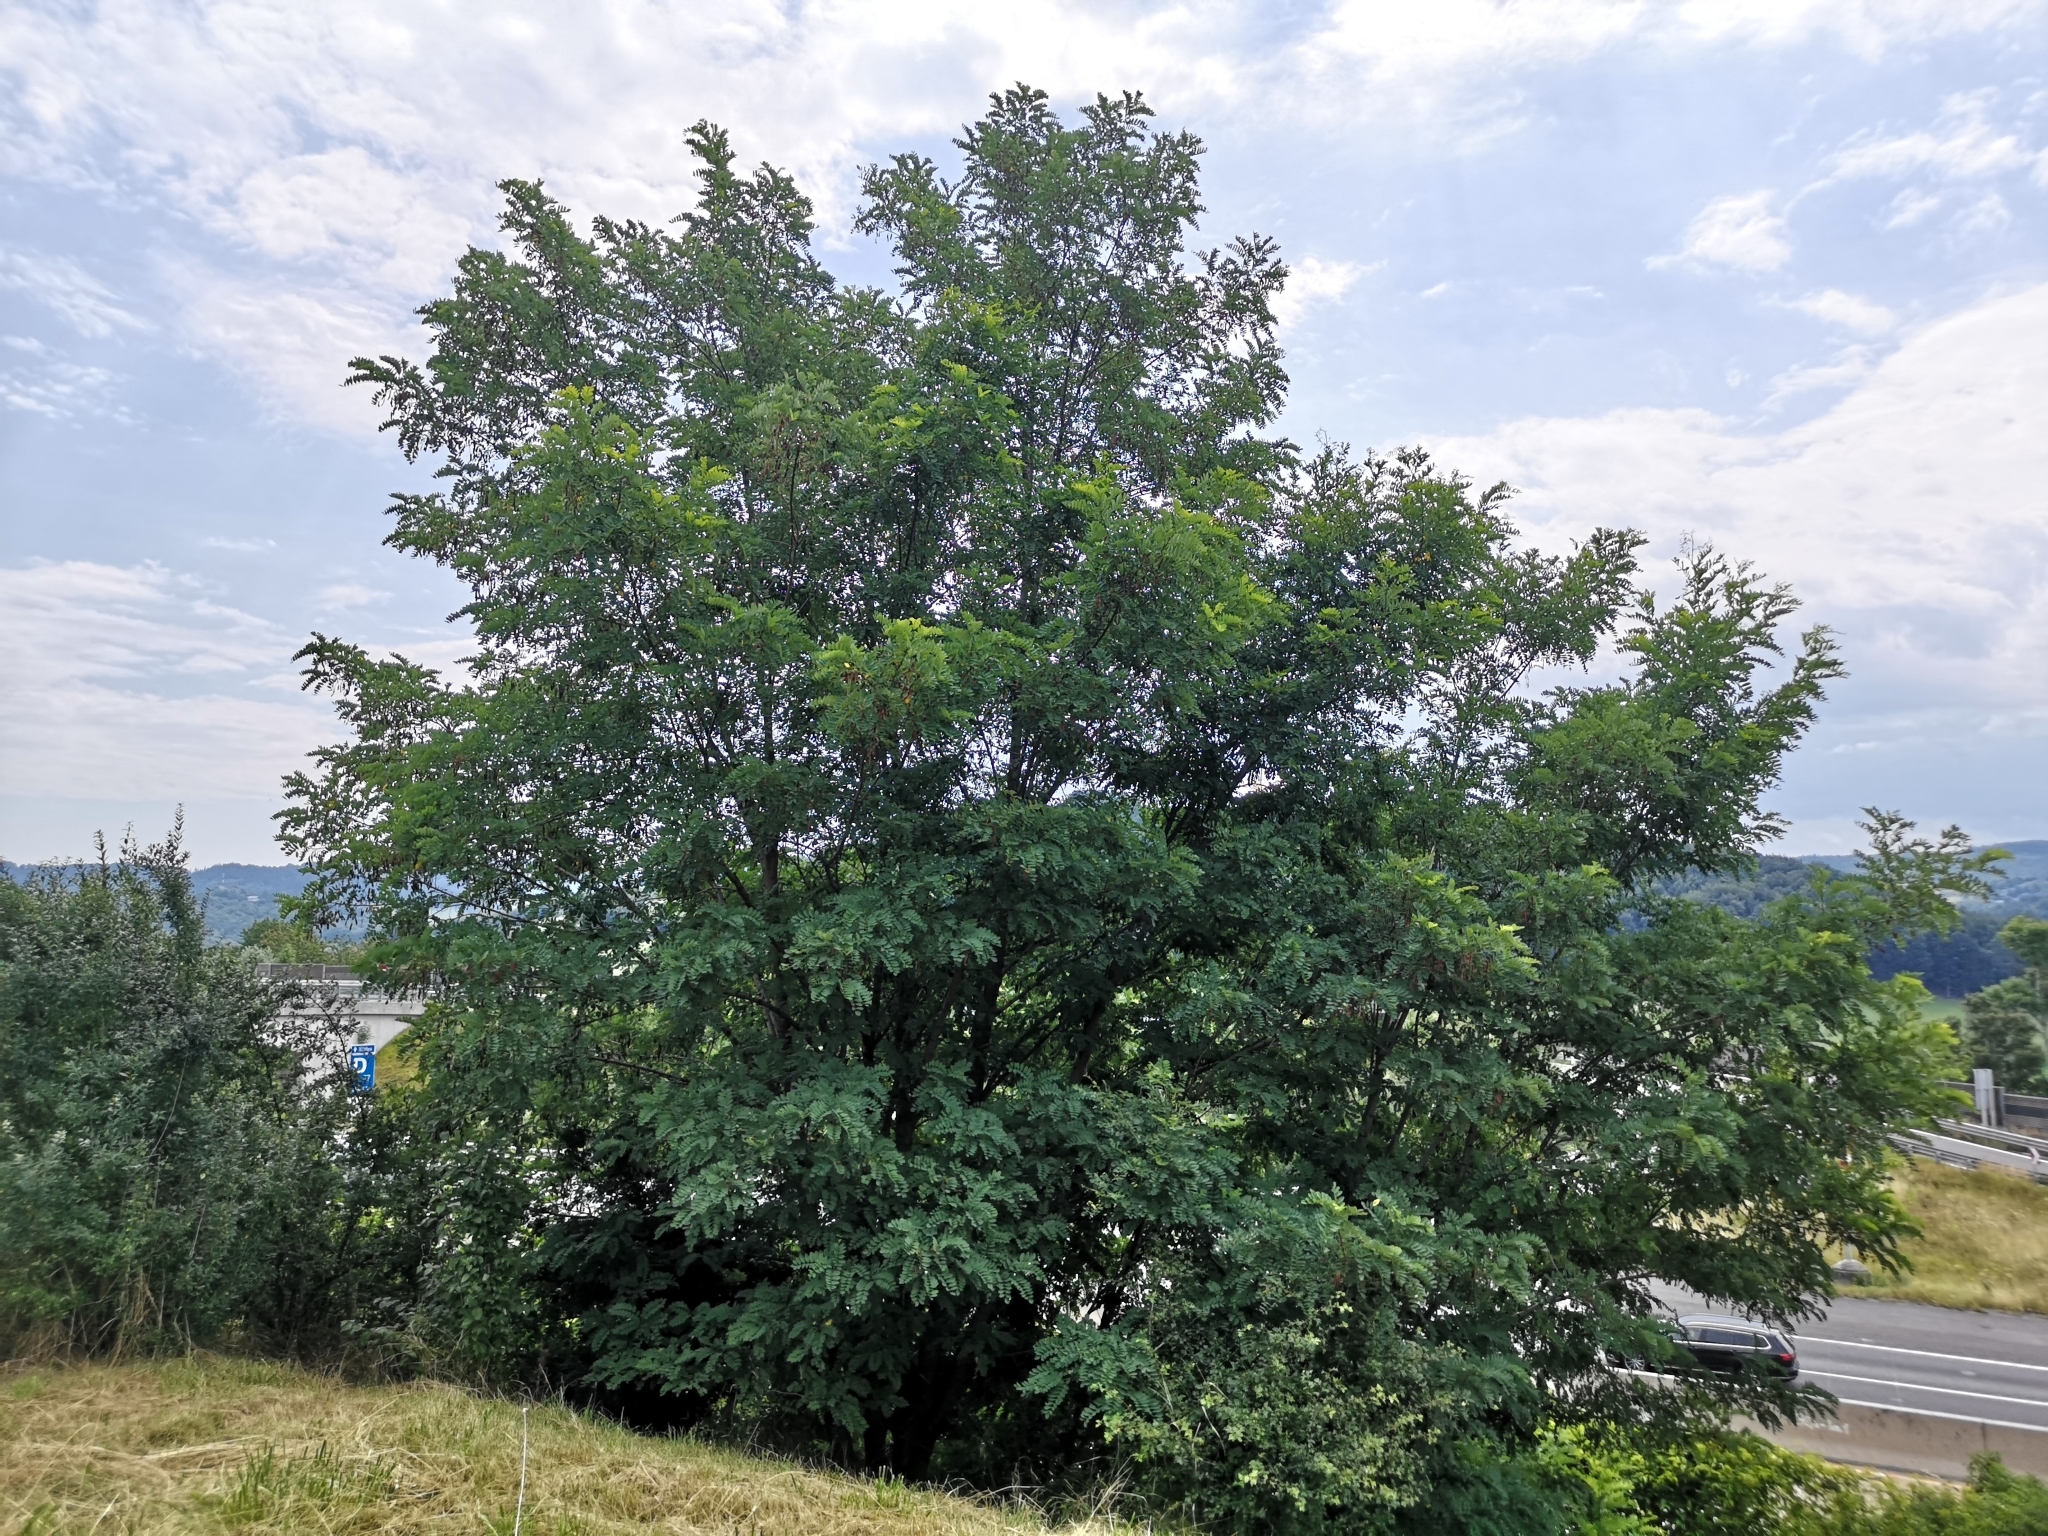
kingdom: Plantae
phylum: Tracheophyta
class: Magnoliopsida
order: Fabales
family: Fabaceae
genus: Robinia
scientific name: Robinia pseudoacacia
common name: Black locust
